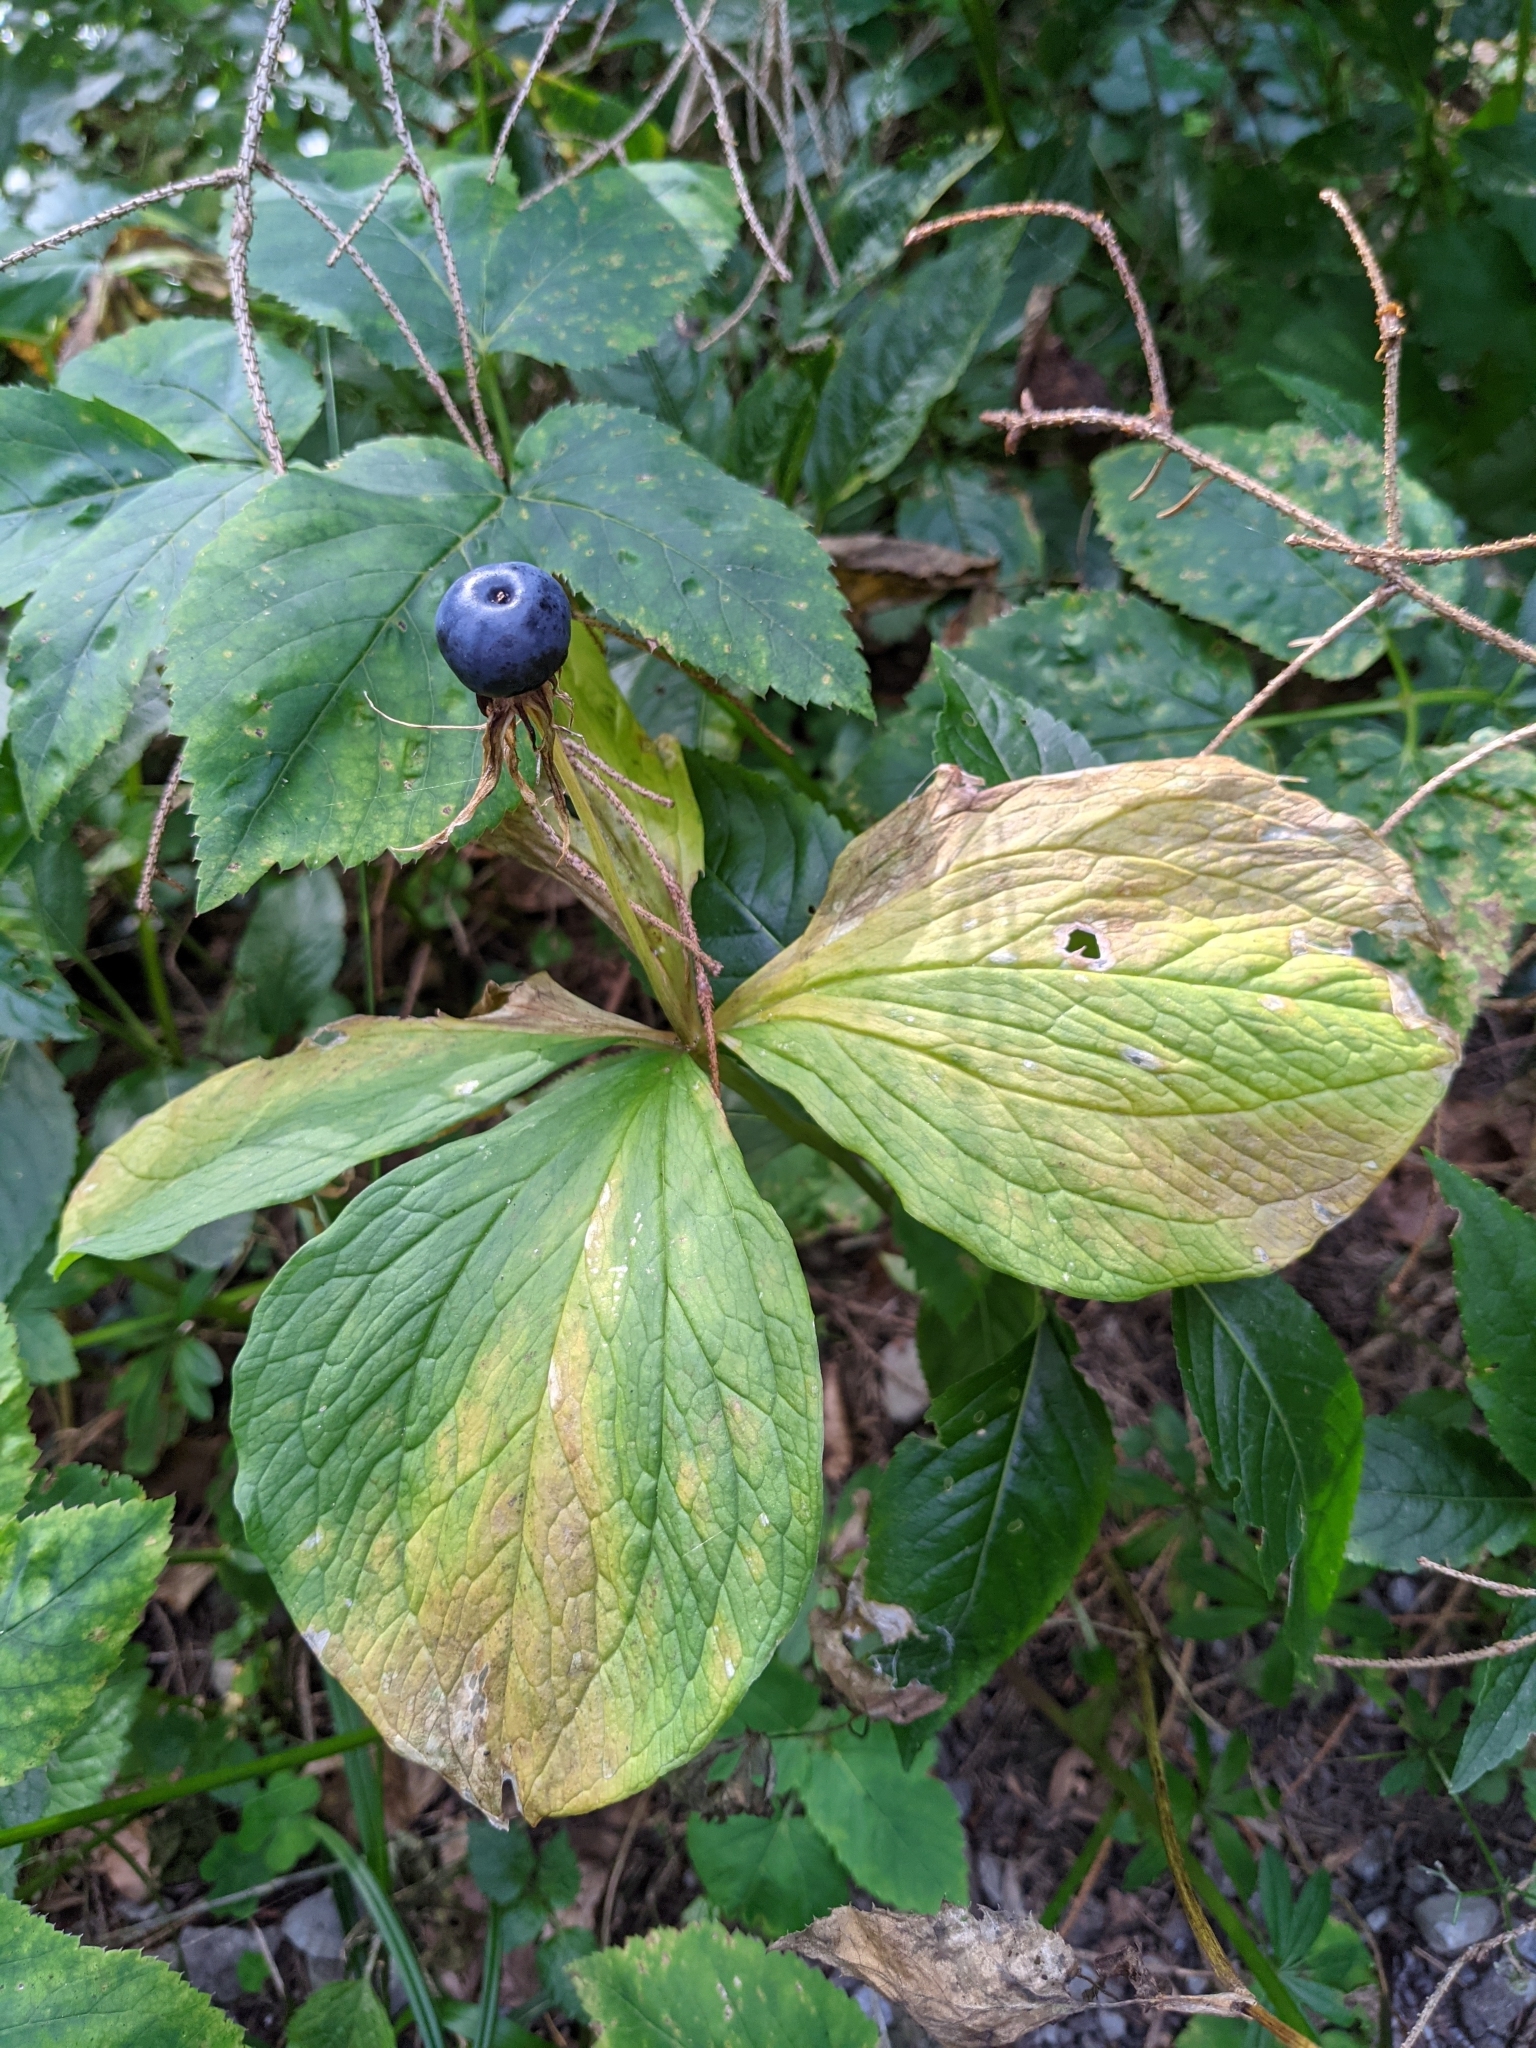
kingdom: Plantae
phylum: Tracheophyta
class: Liliopsida
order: Liliales
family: Melanthiaceae
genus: Paris
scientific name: Paris quadrifolia
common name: Herb-paris
